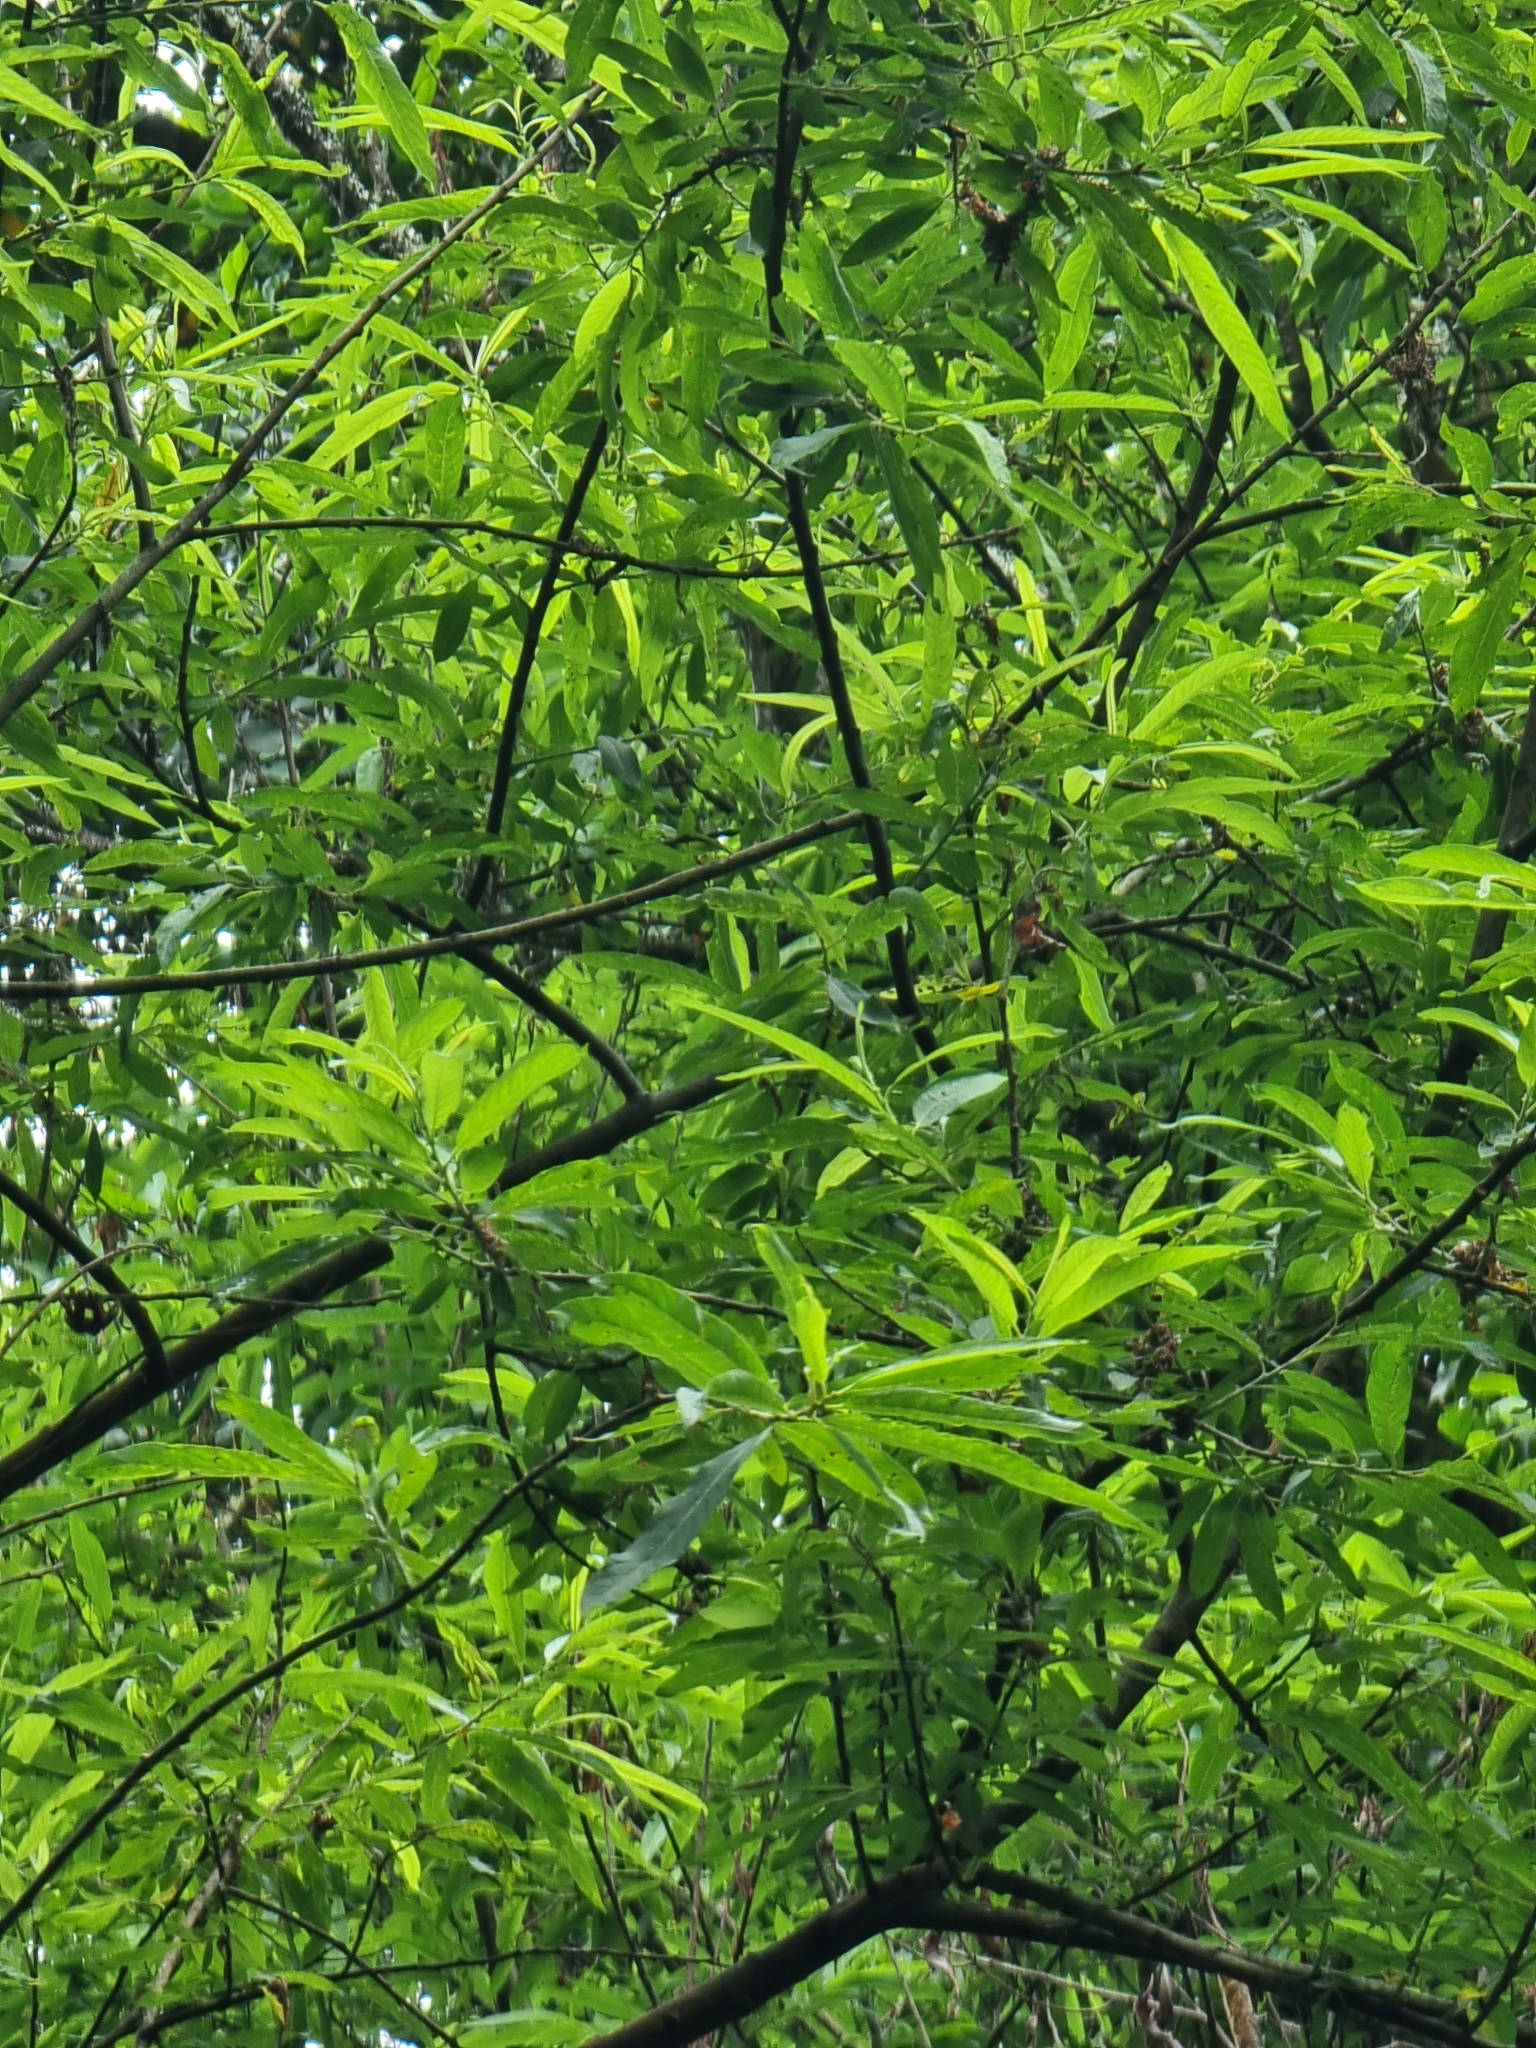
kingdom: Plantae
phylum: Tracheophyta
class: Magnoliopsida
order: Malpighiales
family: Salicaceae
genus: Salix
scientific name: Salix canariensis
